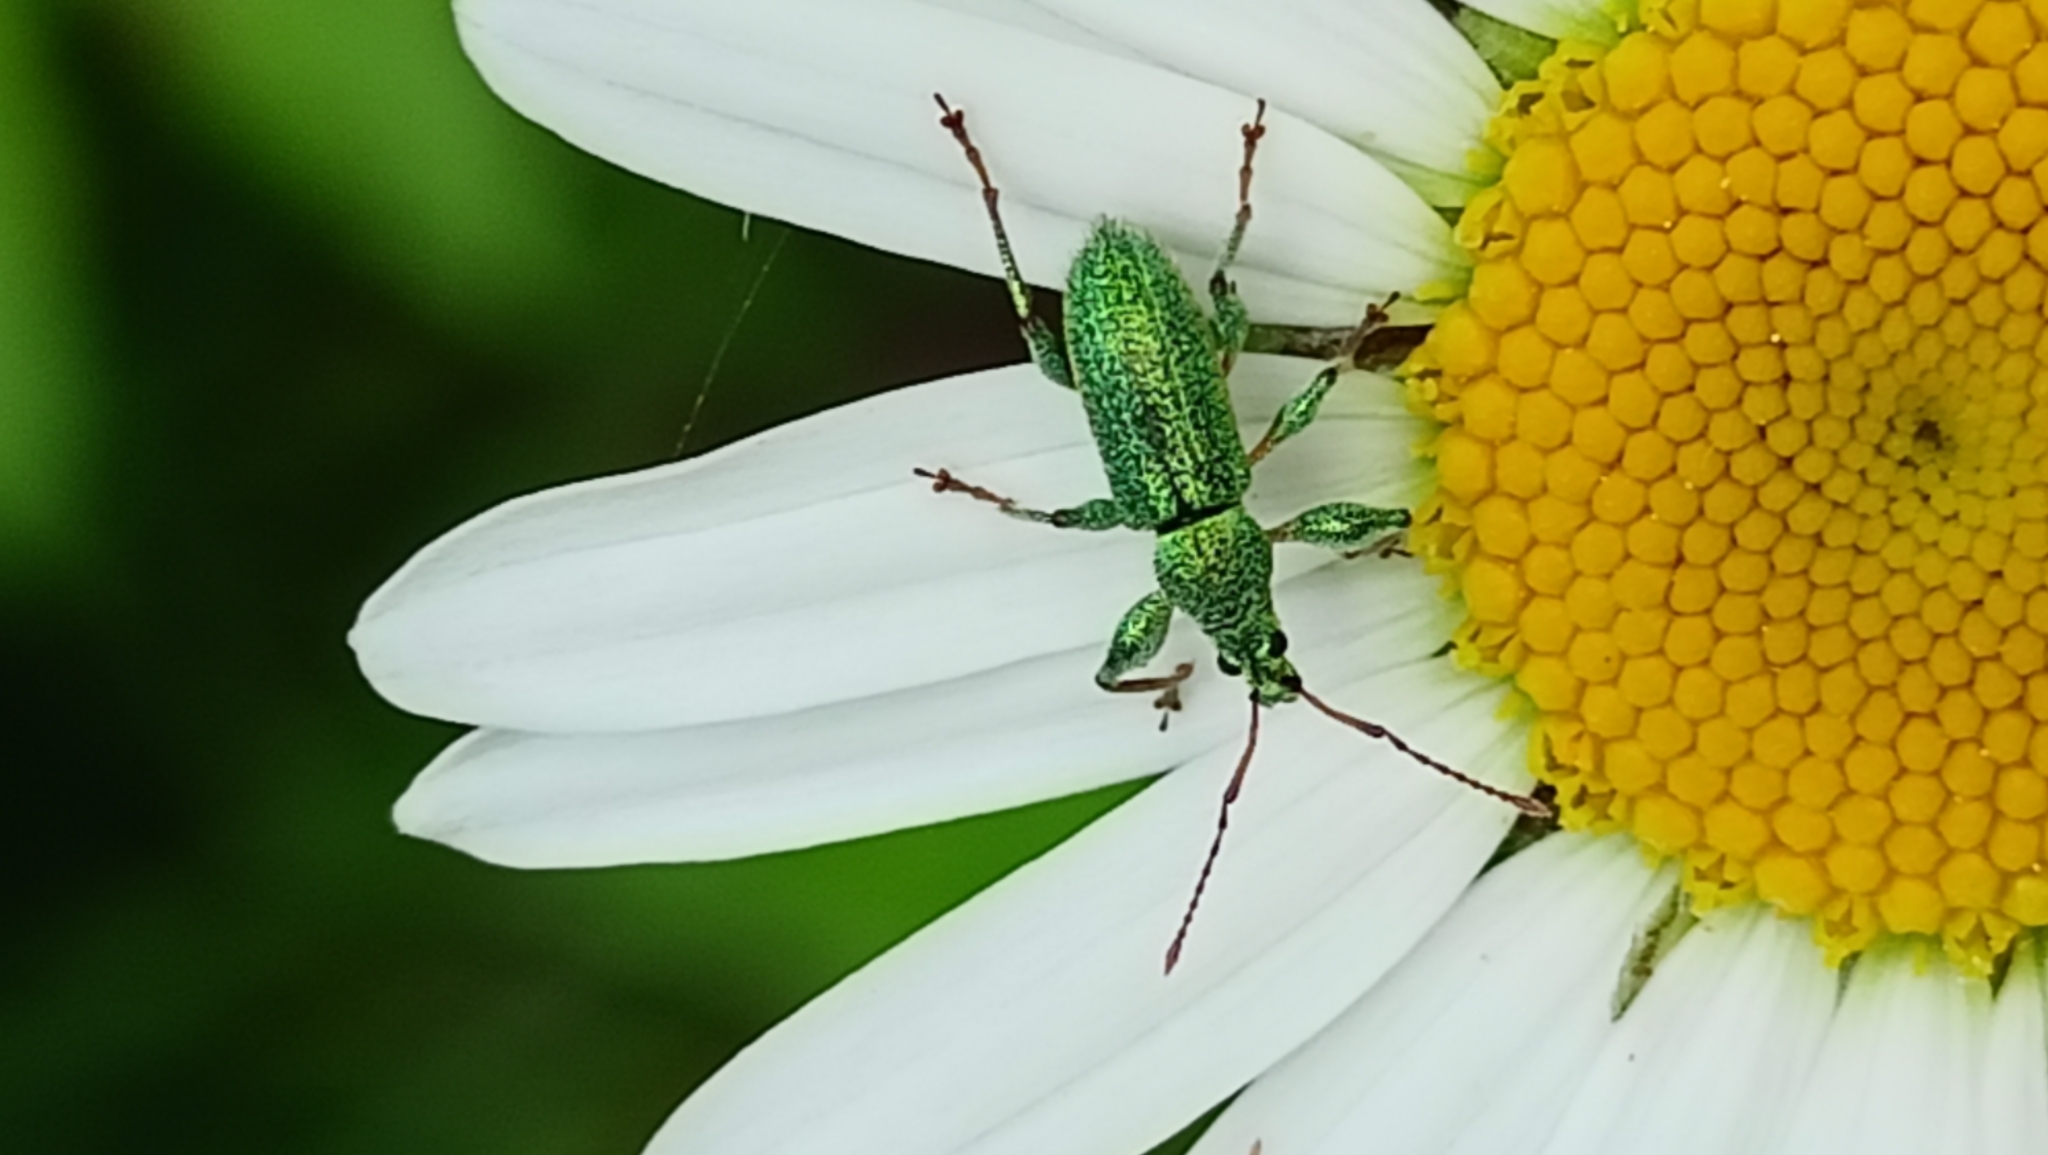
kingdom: Animalia
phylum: Arthropoda
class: Insecta
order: Coleoptera
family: Curculionidae
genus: Phyllobius
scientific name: Phyllobius arborator
